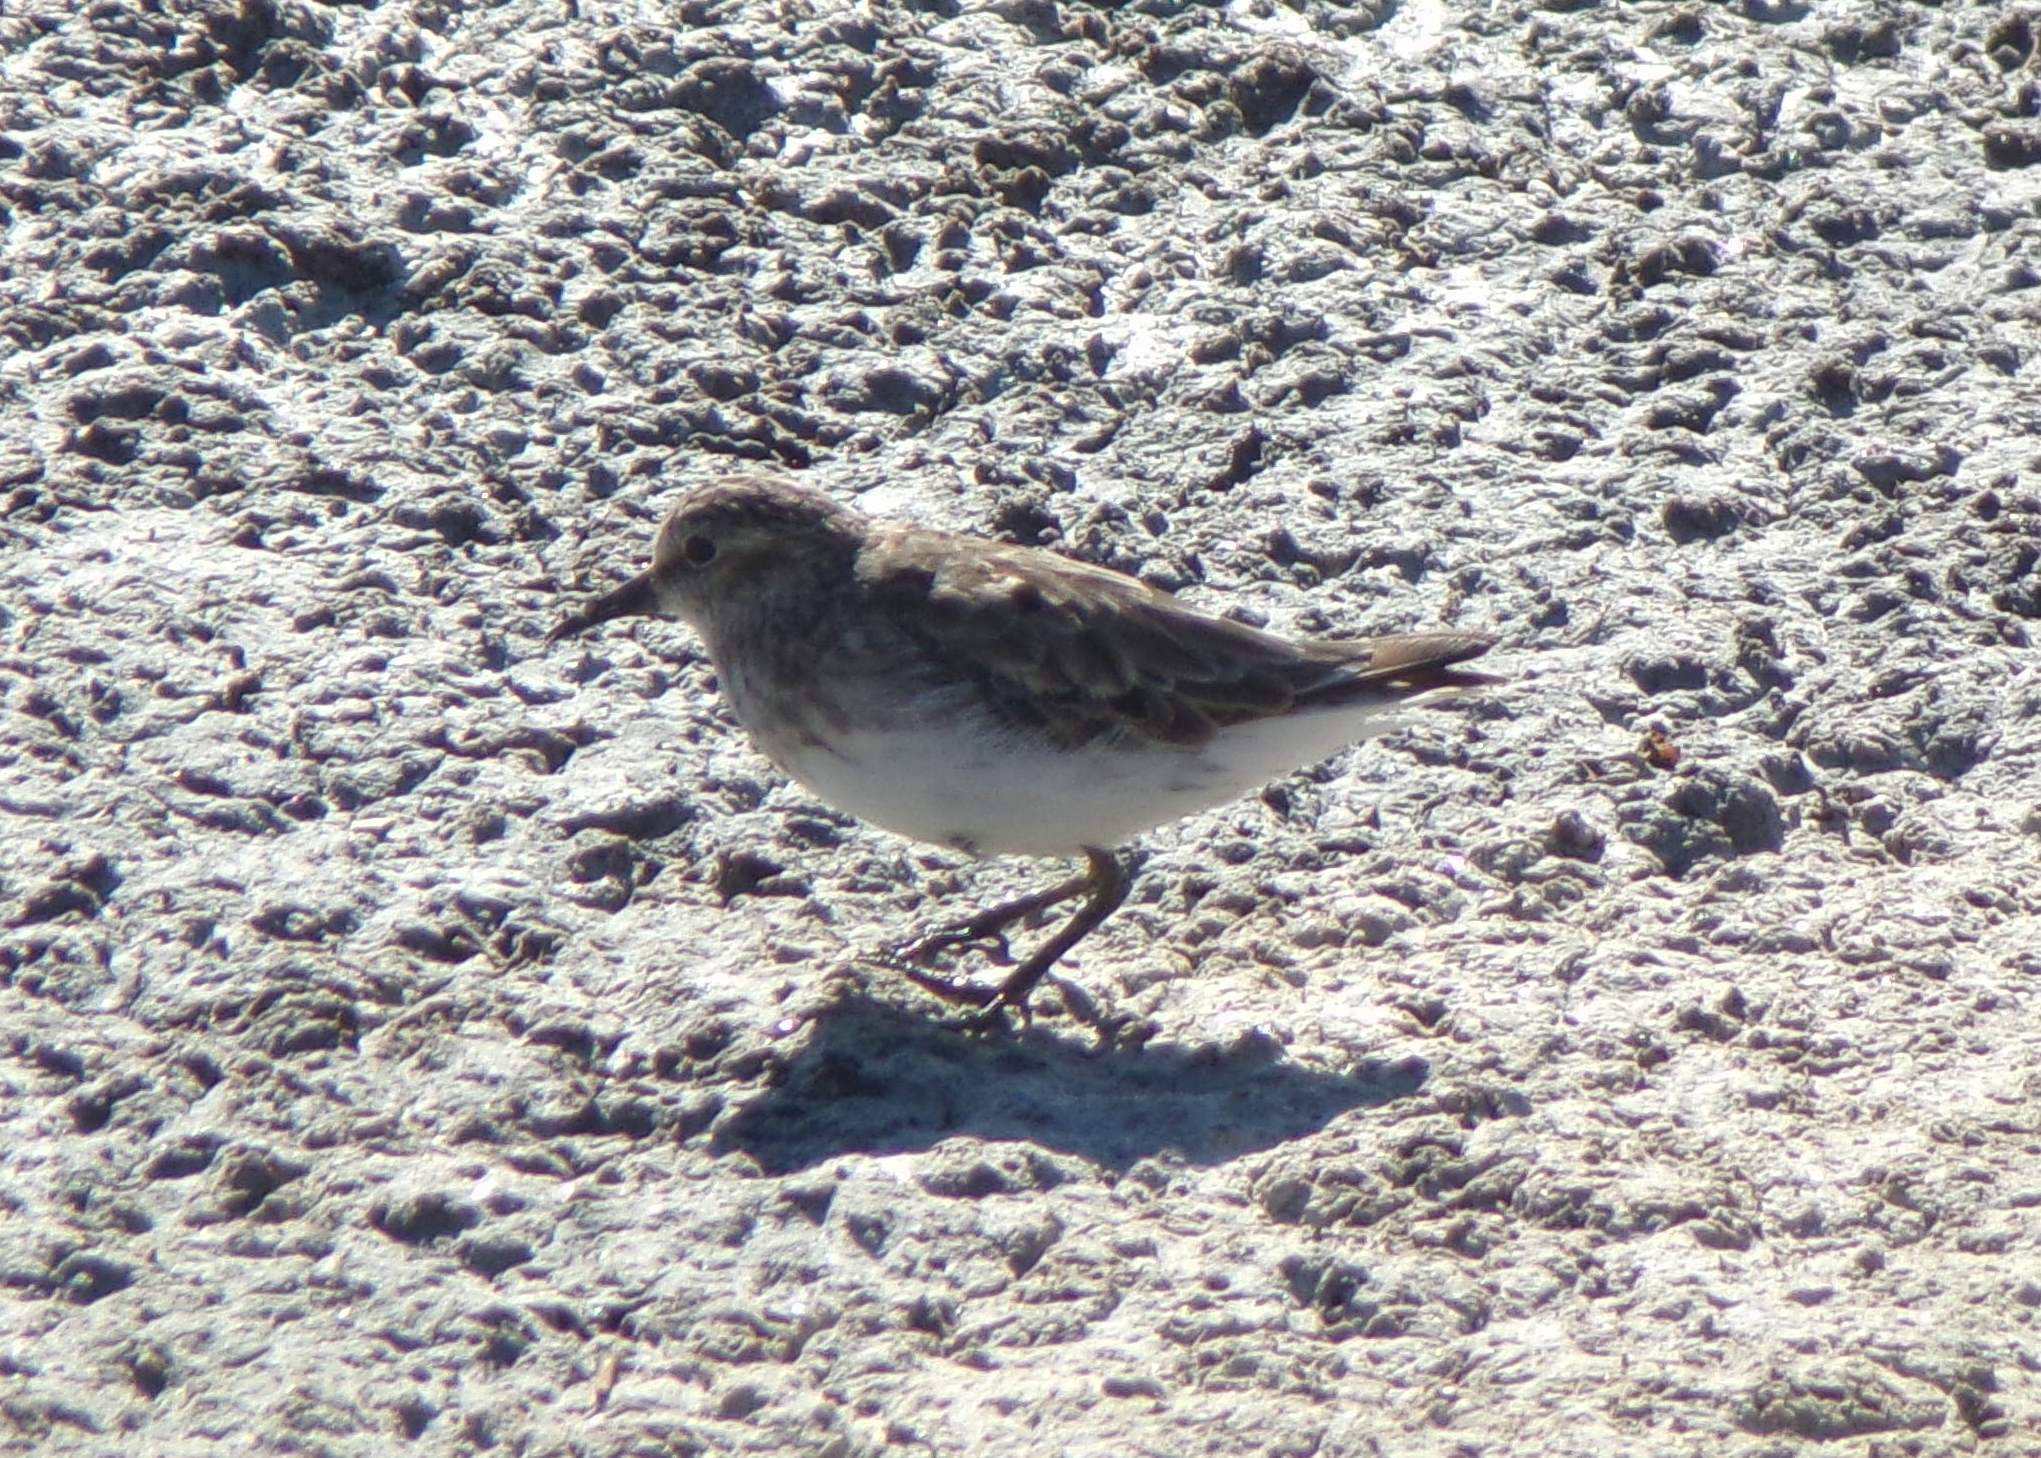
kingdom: Animalia
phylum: Chordata
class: Aves
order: Charadriiformes
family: Scolopacidae
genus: Calidris
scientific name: Calidris minutilla
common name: Least sandpiper
